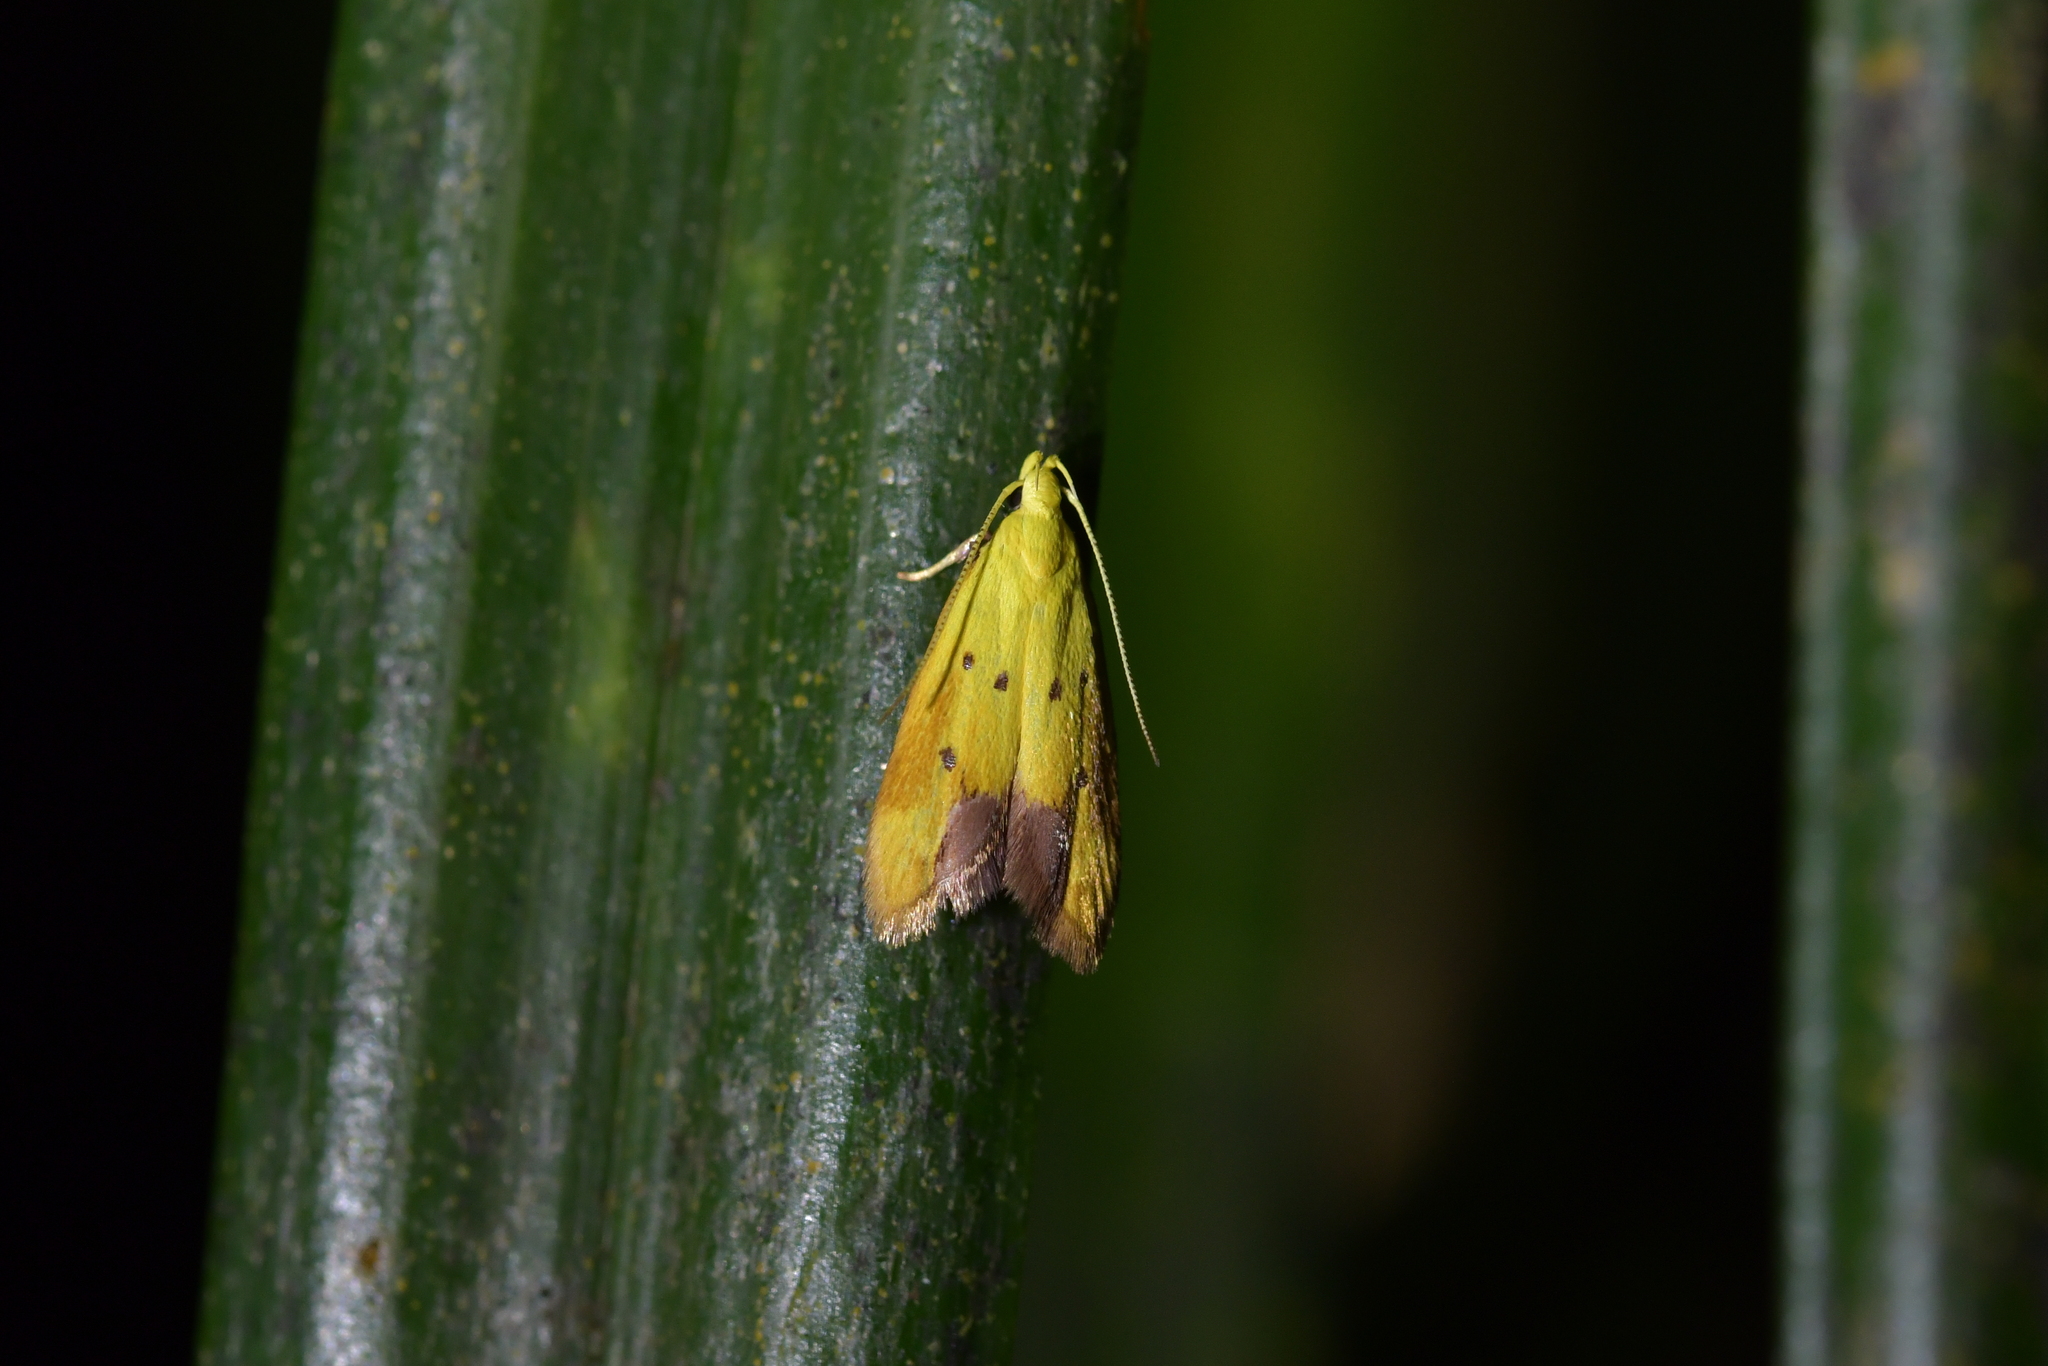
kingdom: Animalia
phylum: Arthropoda
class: Insecta
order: Lepidoptera
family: Oecophoridae
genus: Gymnobathra
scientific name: Gymnobathra flavidella
